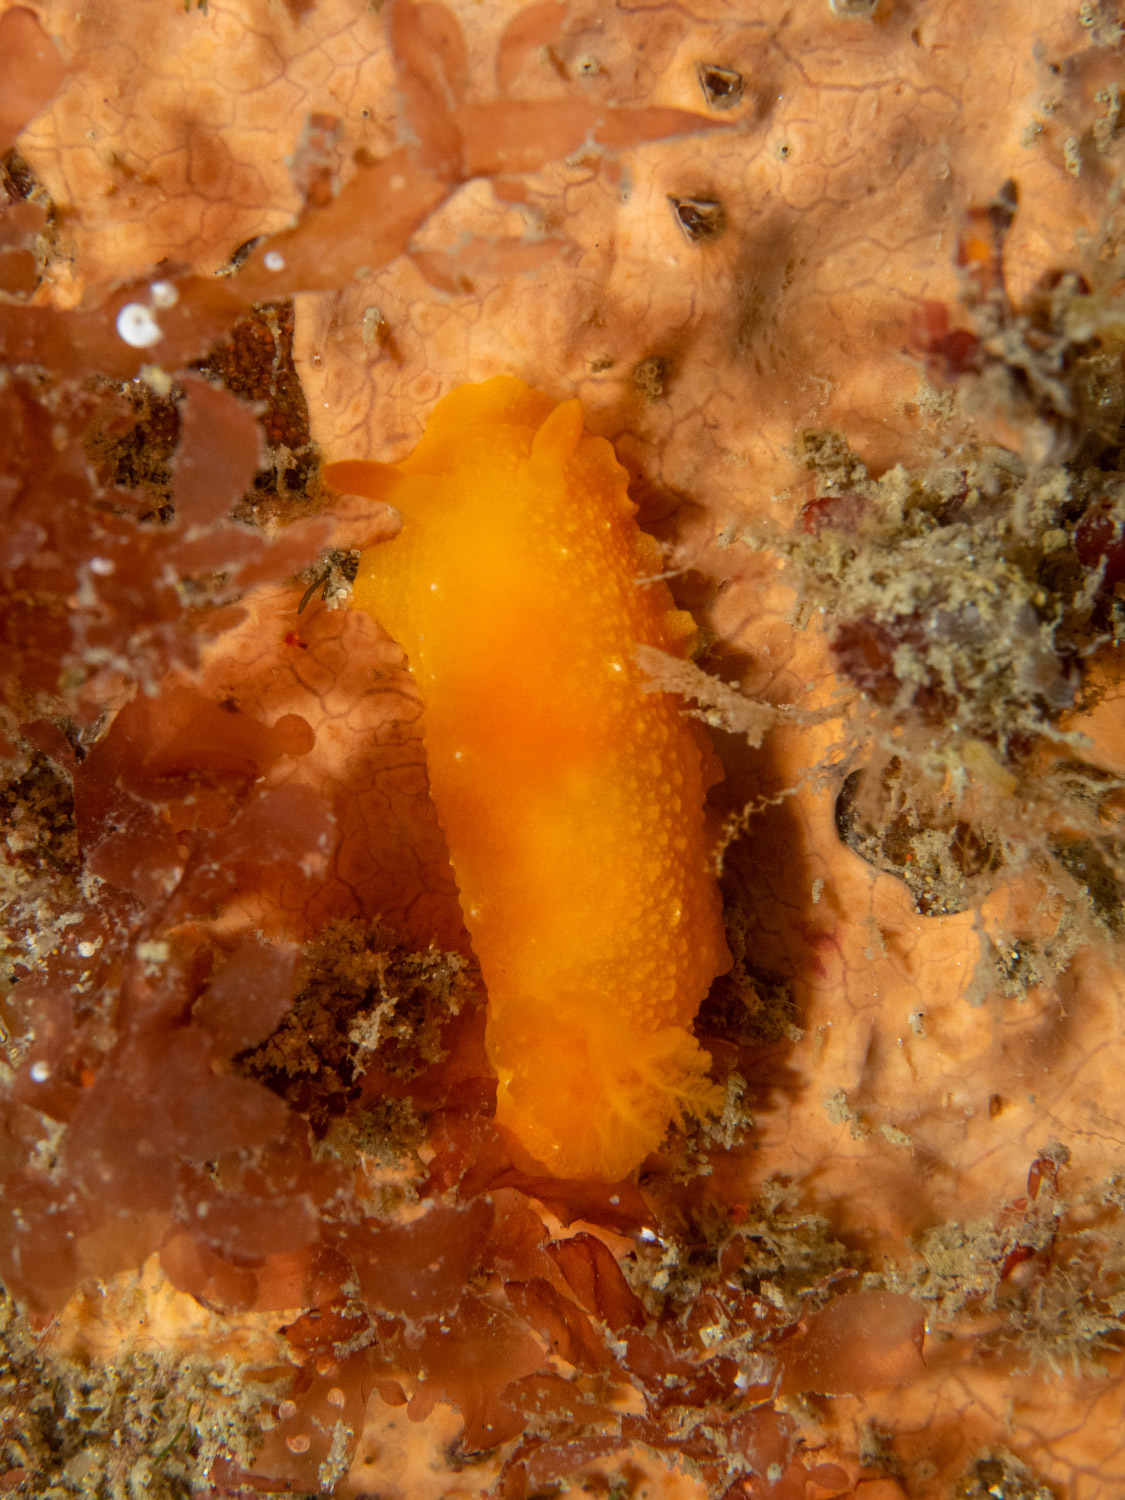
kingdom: Animalia
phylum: Mollusca
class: Gastropoda
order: Nudibranchia
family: Dendrodorididae
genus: Doriopsilla
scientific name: Doriopsilla carneola
